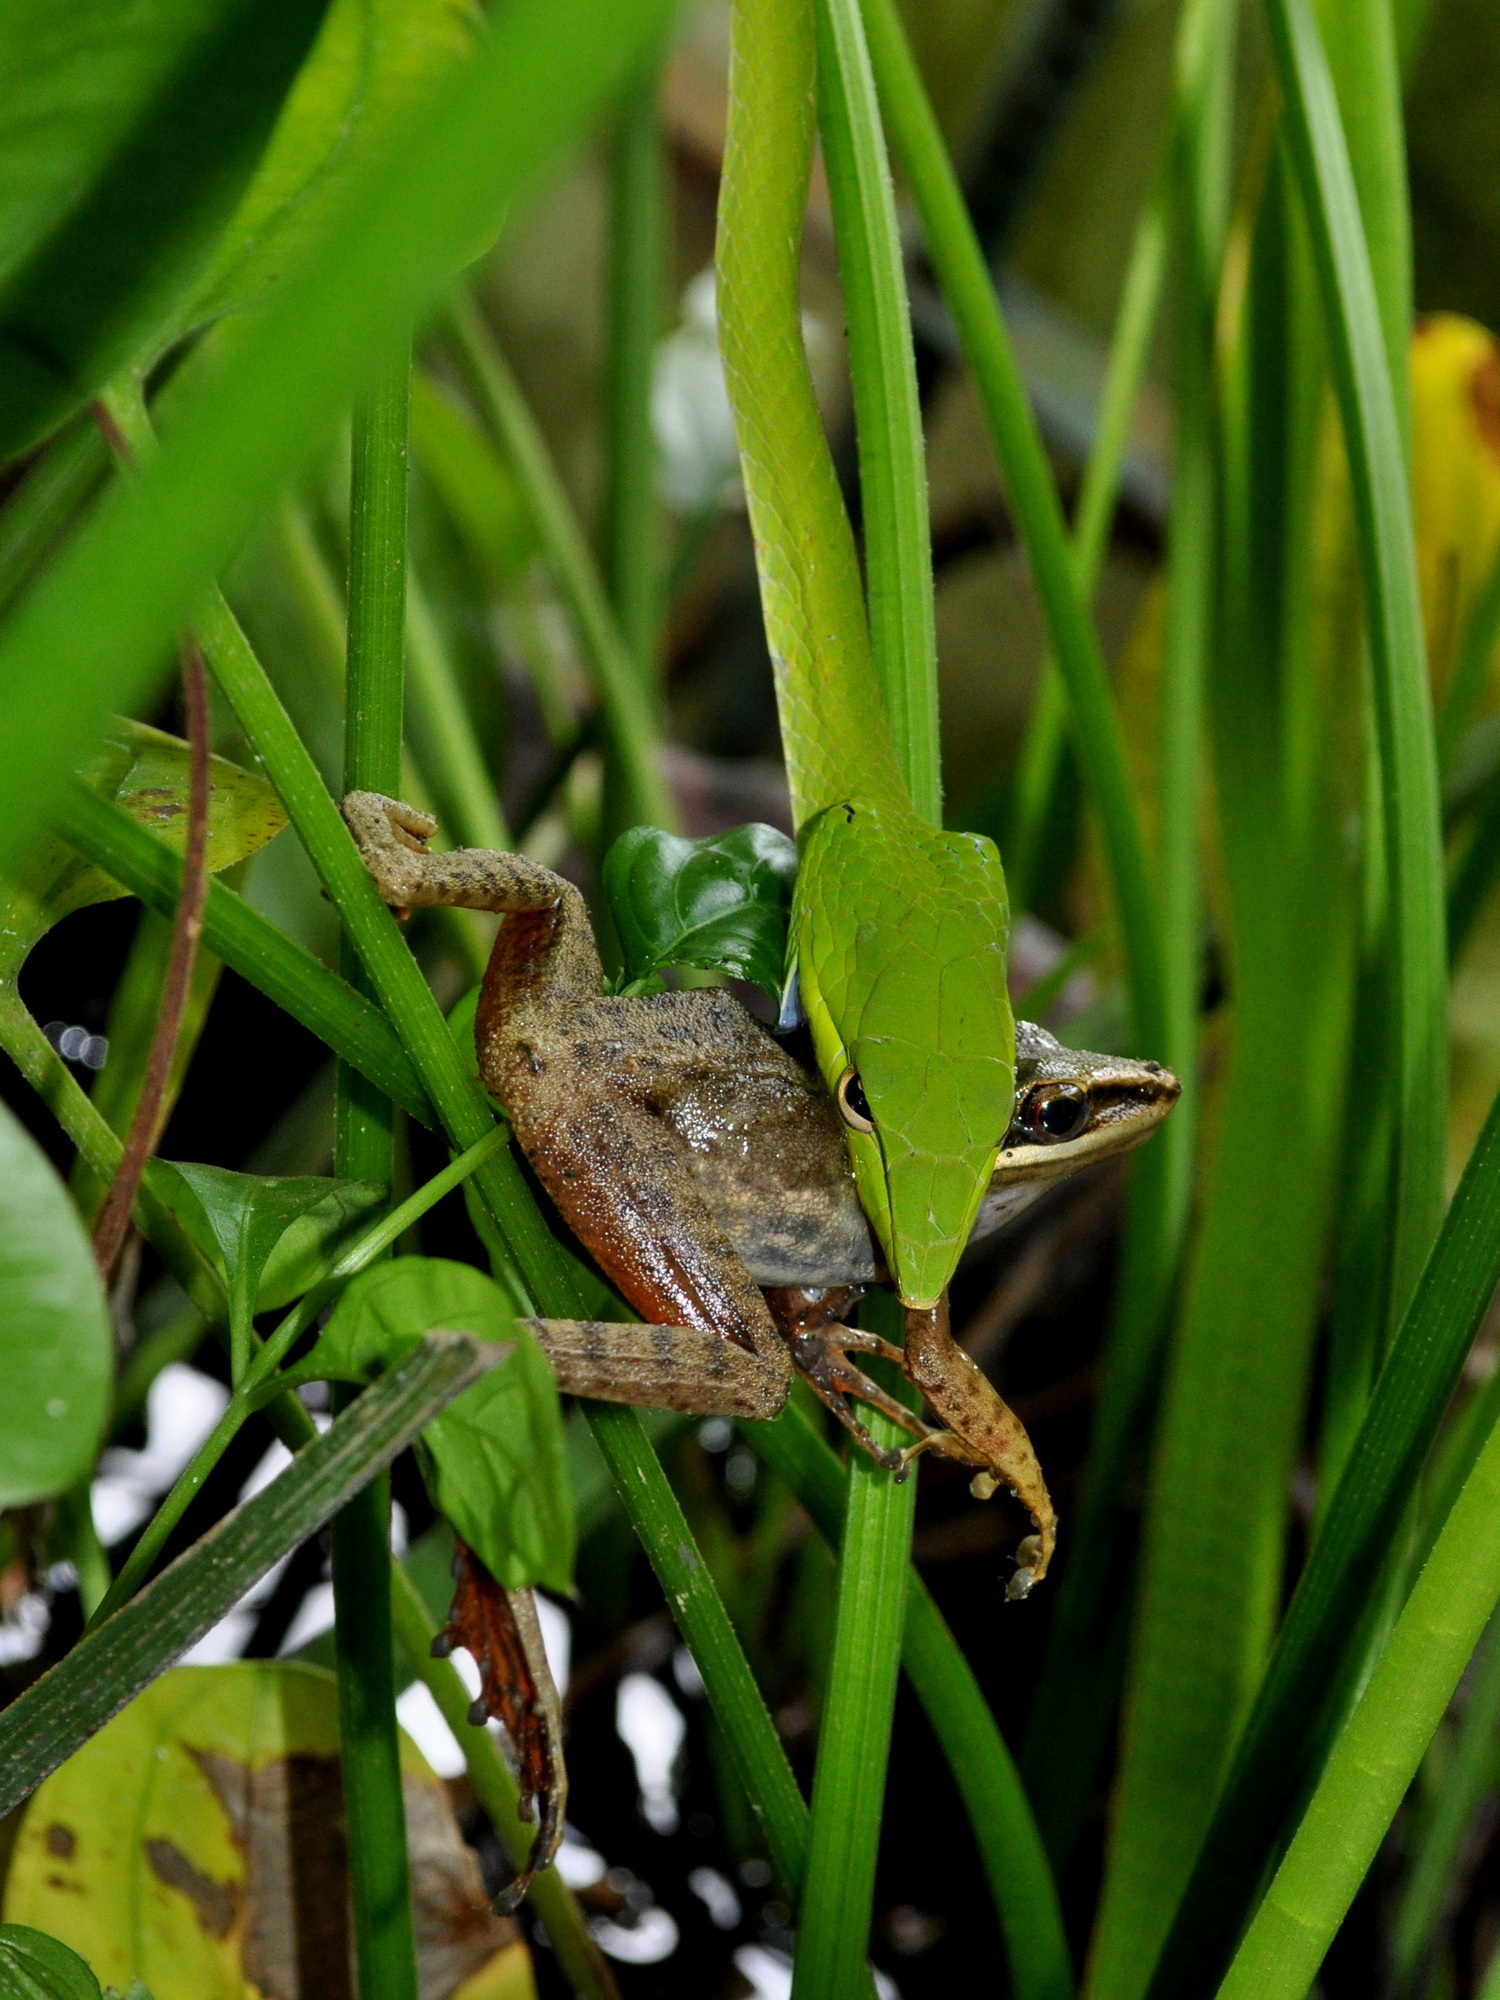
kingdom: Animalia
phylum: Chordata
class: Amphibia
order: Anura
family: Ranidae
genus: Chalcorana
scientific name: Chalcorana chalconota
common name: Schlegel's frog
